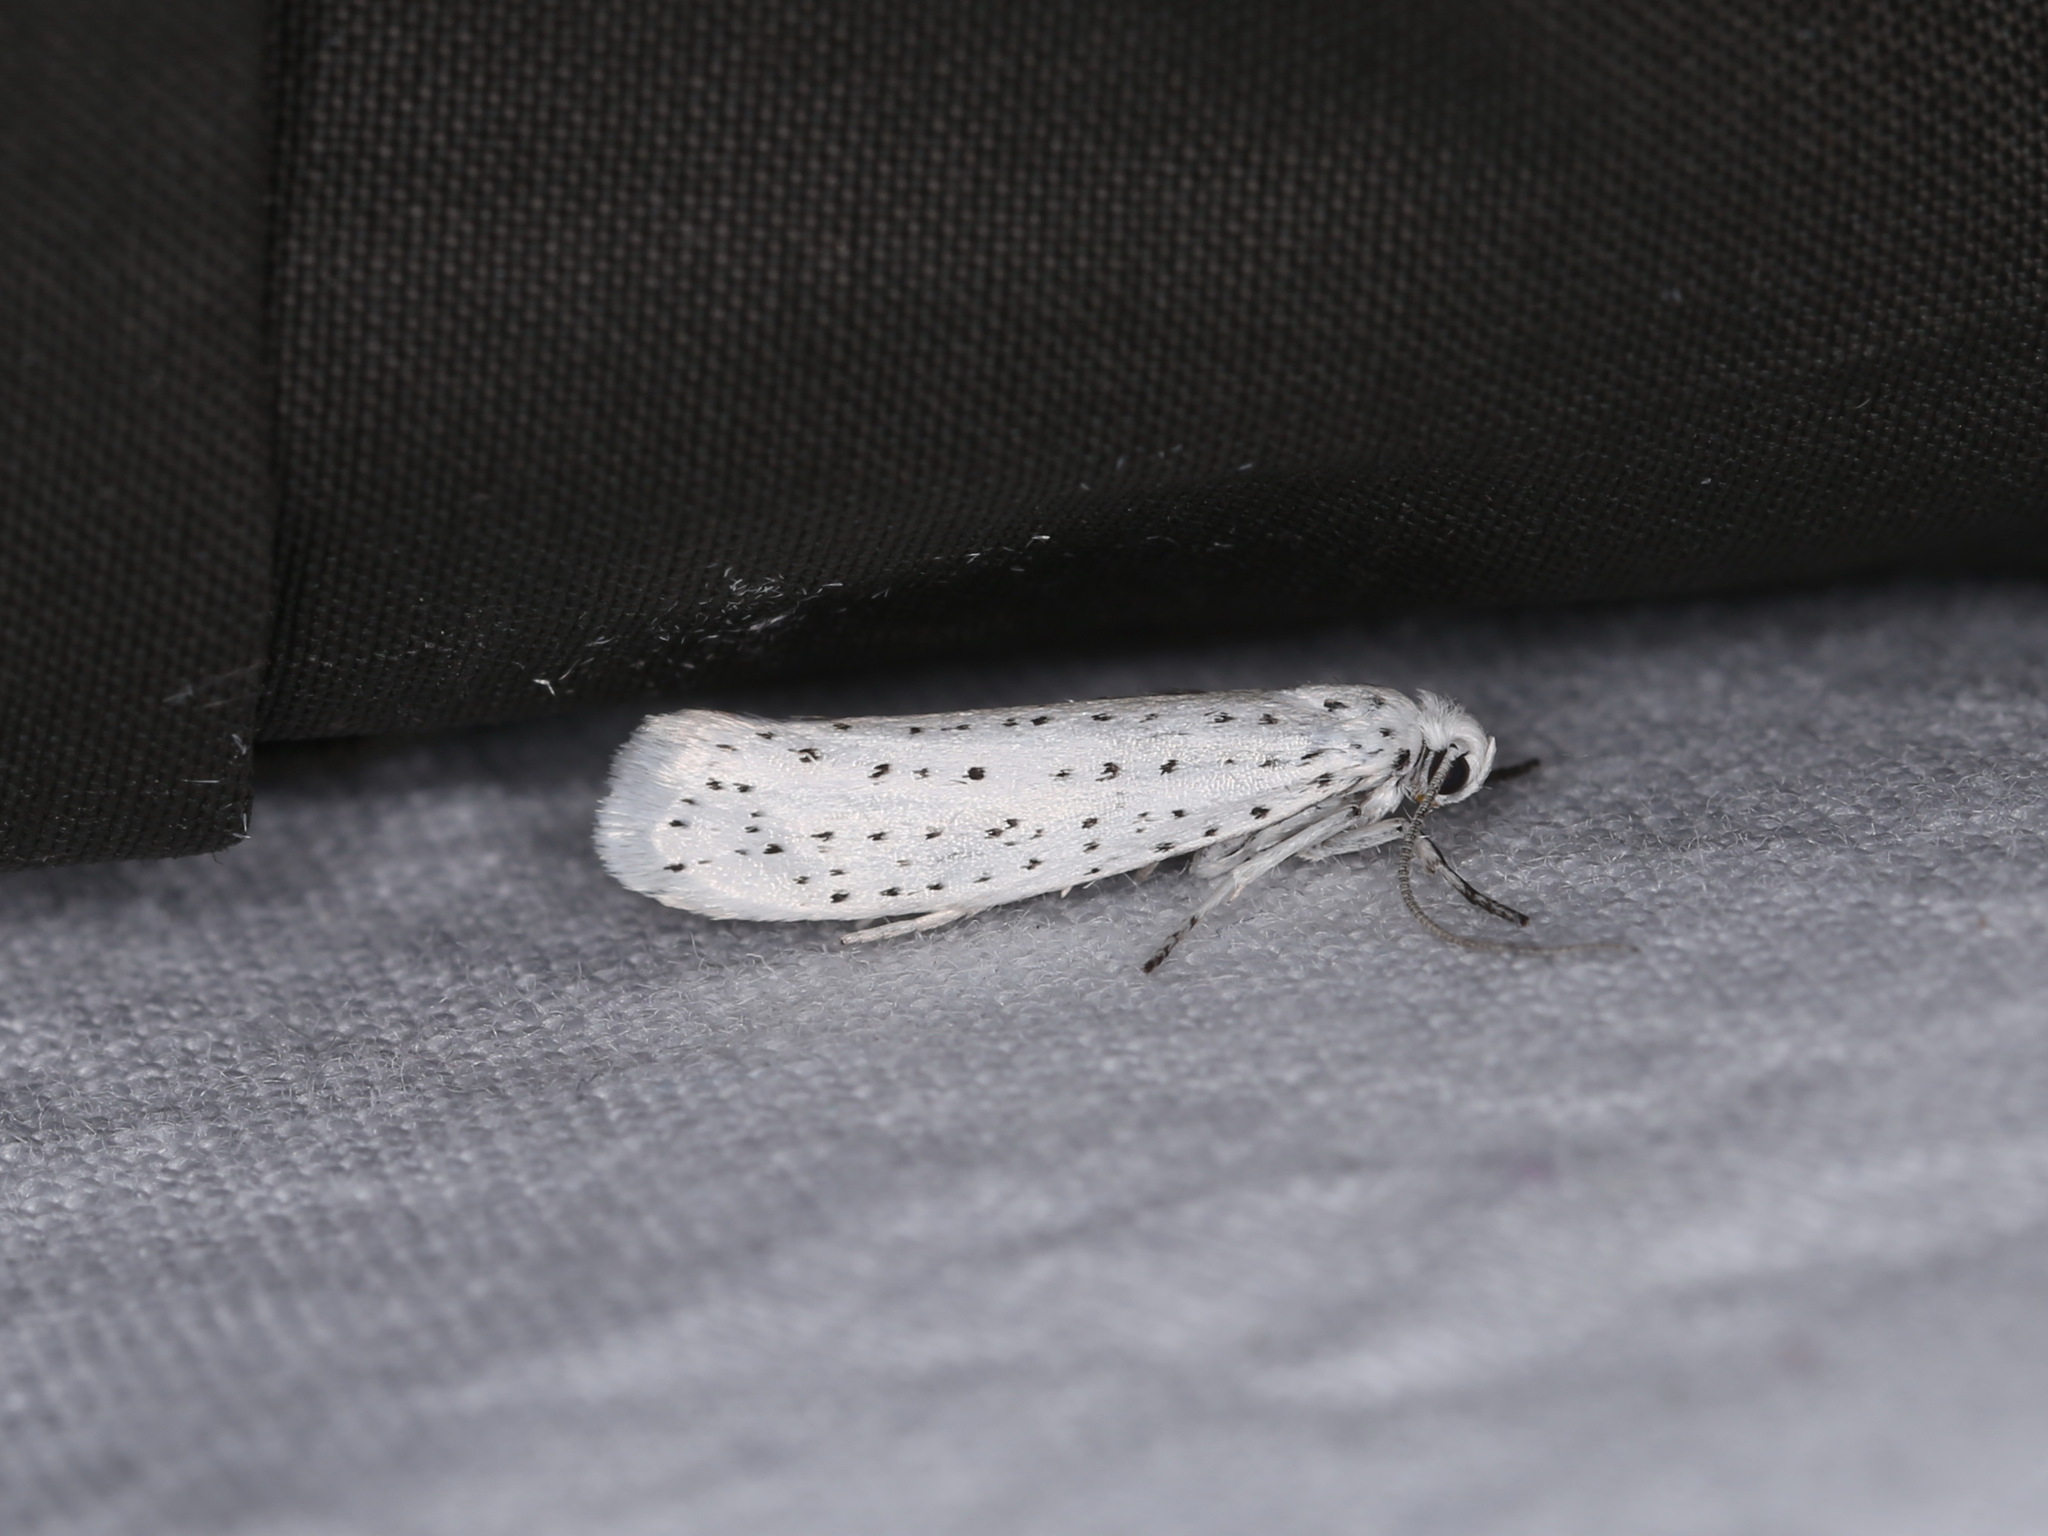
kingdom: Animalia
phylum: Arthropoda
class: Insecta
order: Lepidoptera
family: Yponomeutidae
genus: Yponomeuta
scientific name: Yponomeuta evonymella
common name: Bird-cherry ermine
